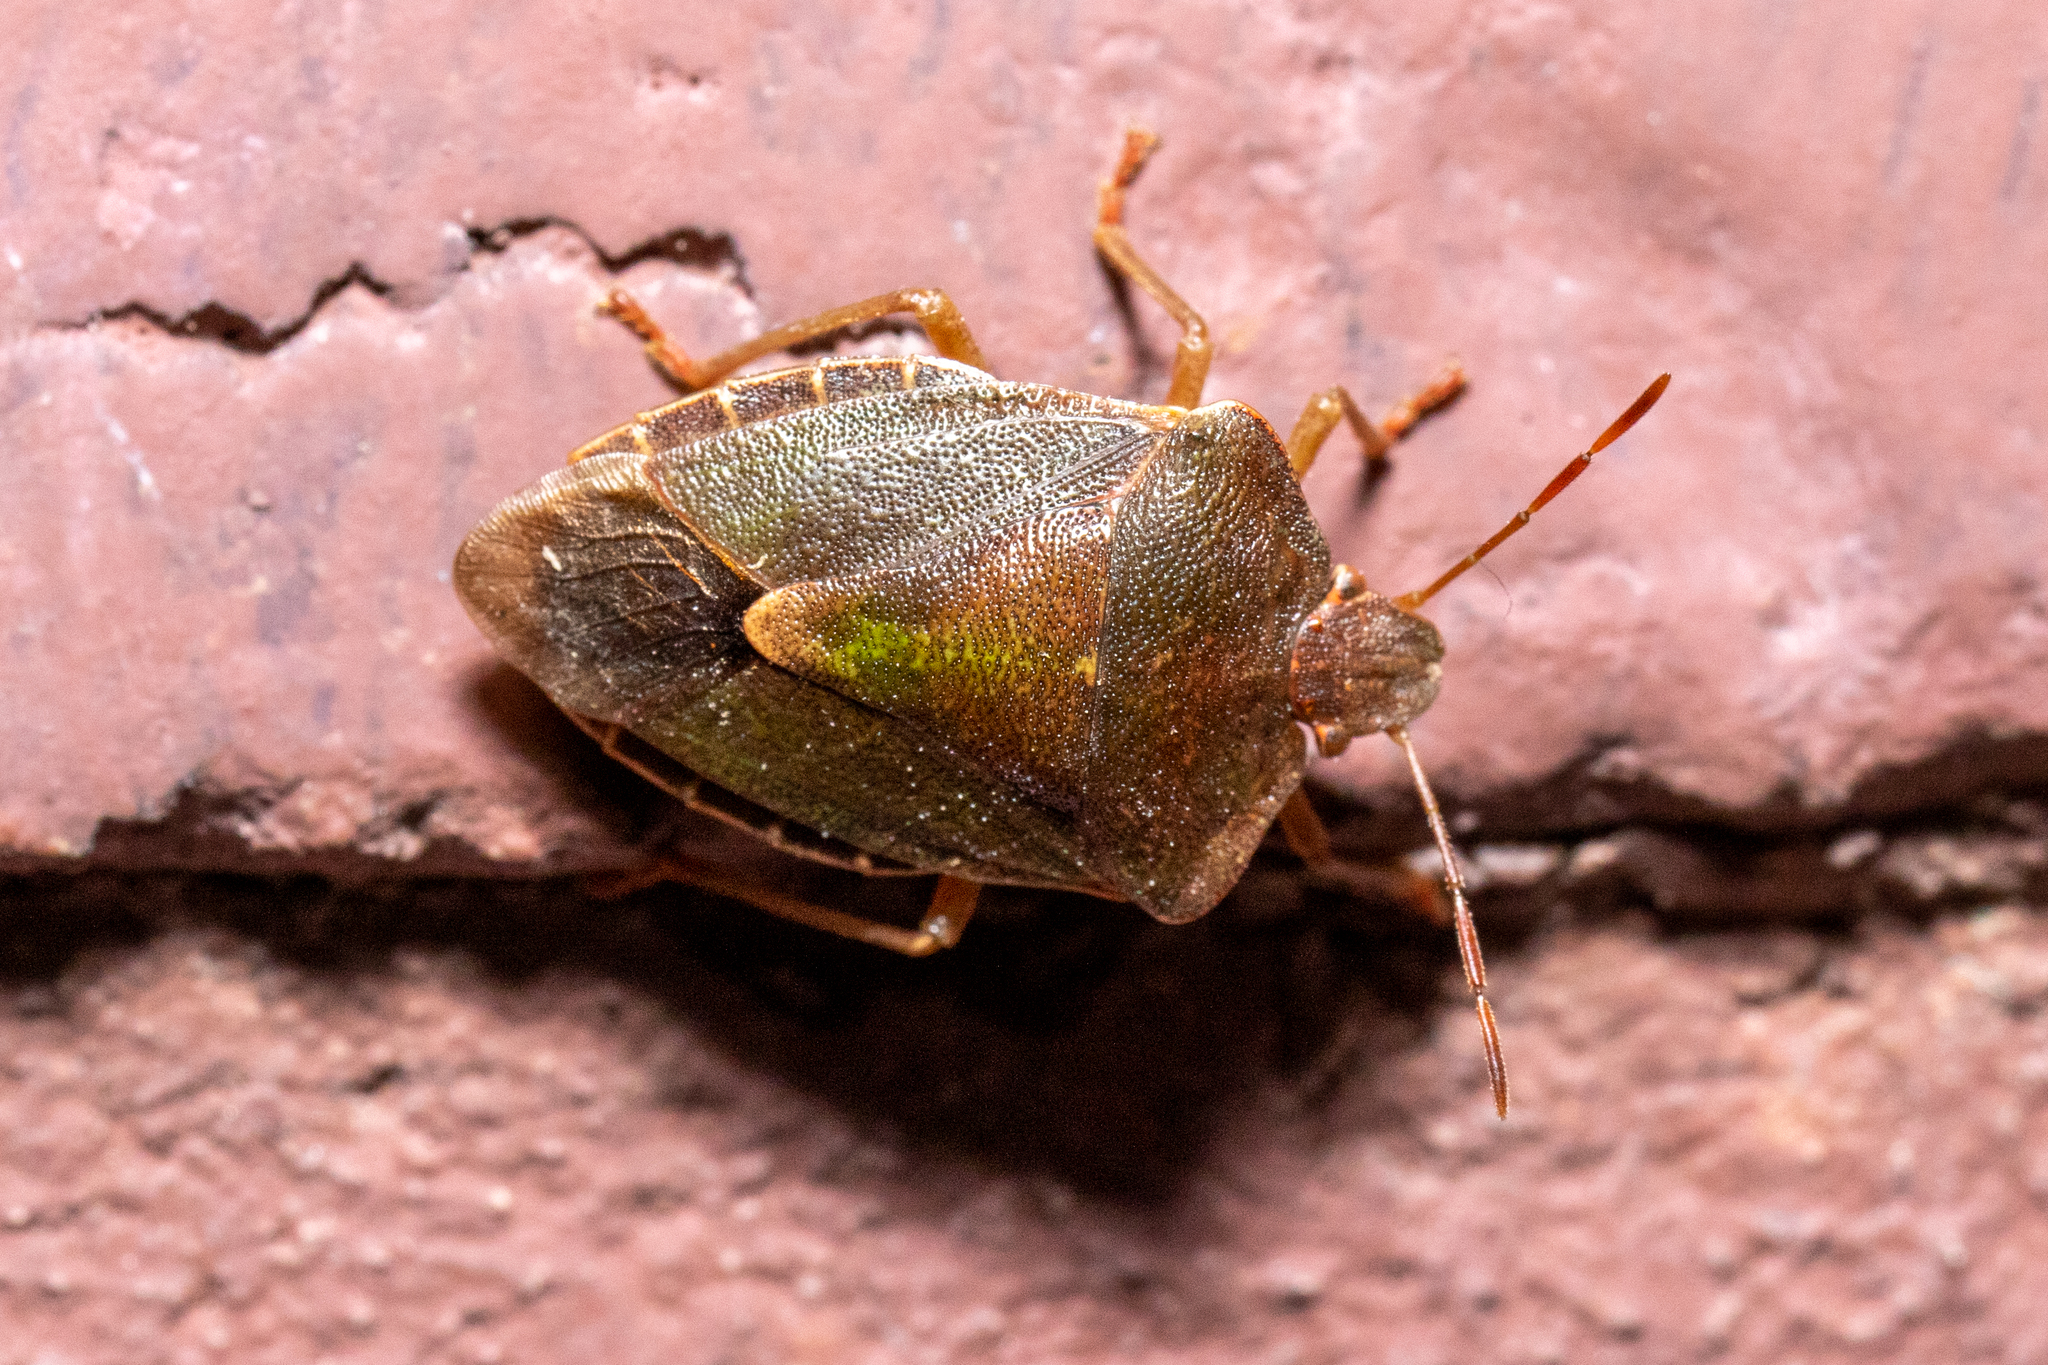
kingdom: Animalia
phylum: Arthropoda
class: Insecta
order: Hemiptera
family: Pentatomidae
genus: Palomena
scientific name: Palomena prasina
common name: Green shieldbug
